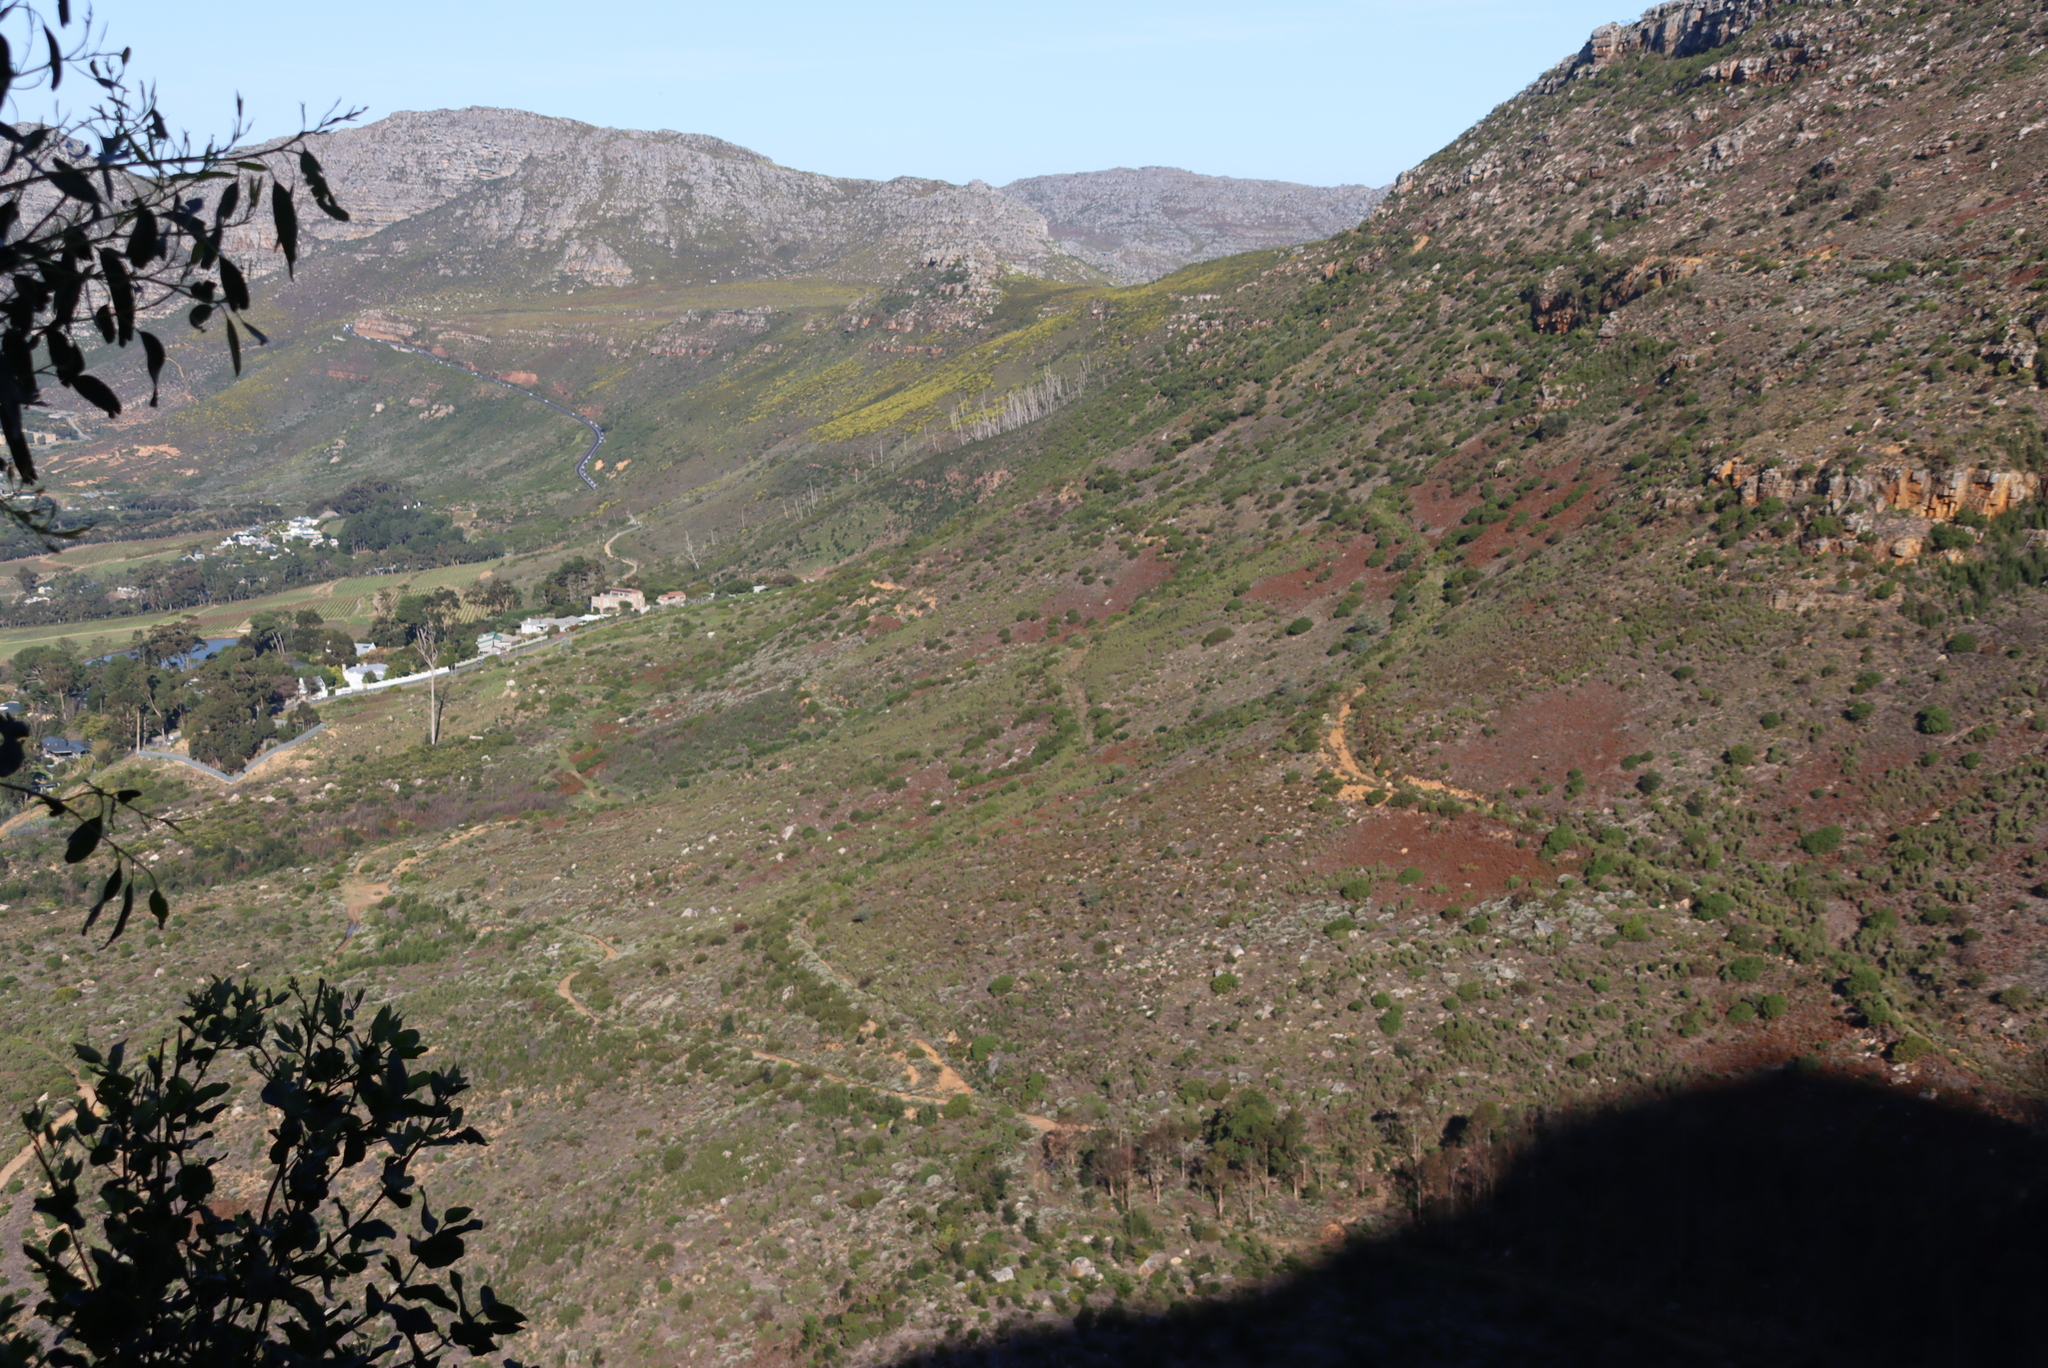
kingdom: Plantae
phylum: Tracheophyta
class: Magnoliopsida
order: Proteales
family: Proteaceae
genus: Leucadendron
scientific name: Leucadendron xanthoconus
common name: Sickle-leaf conebush
